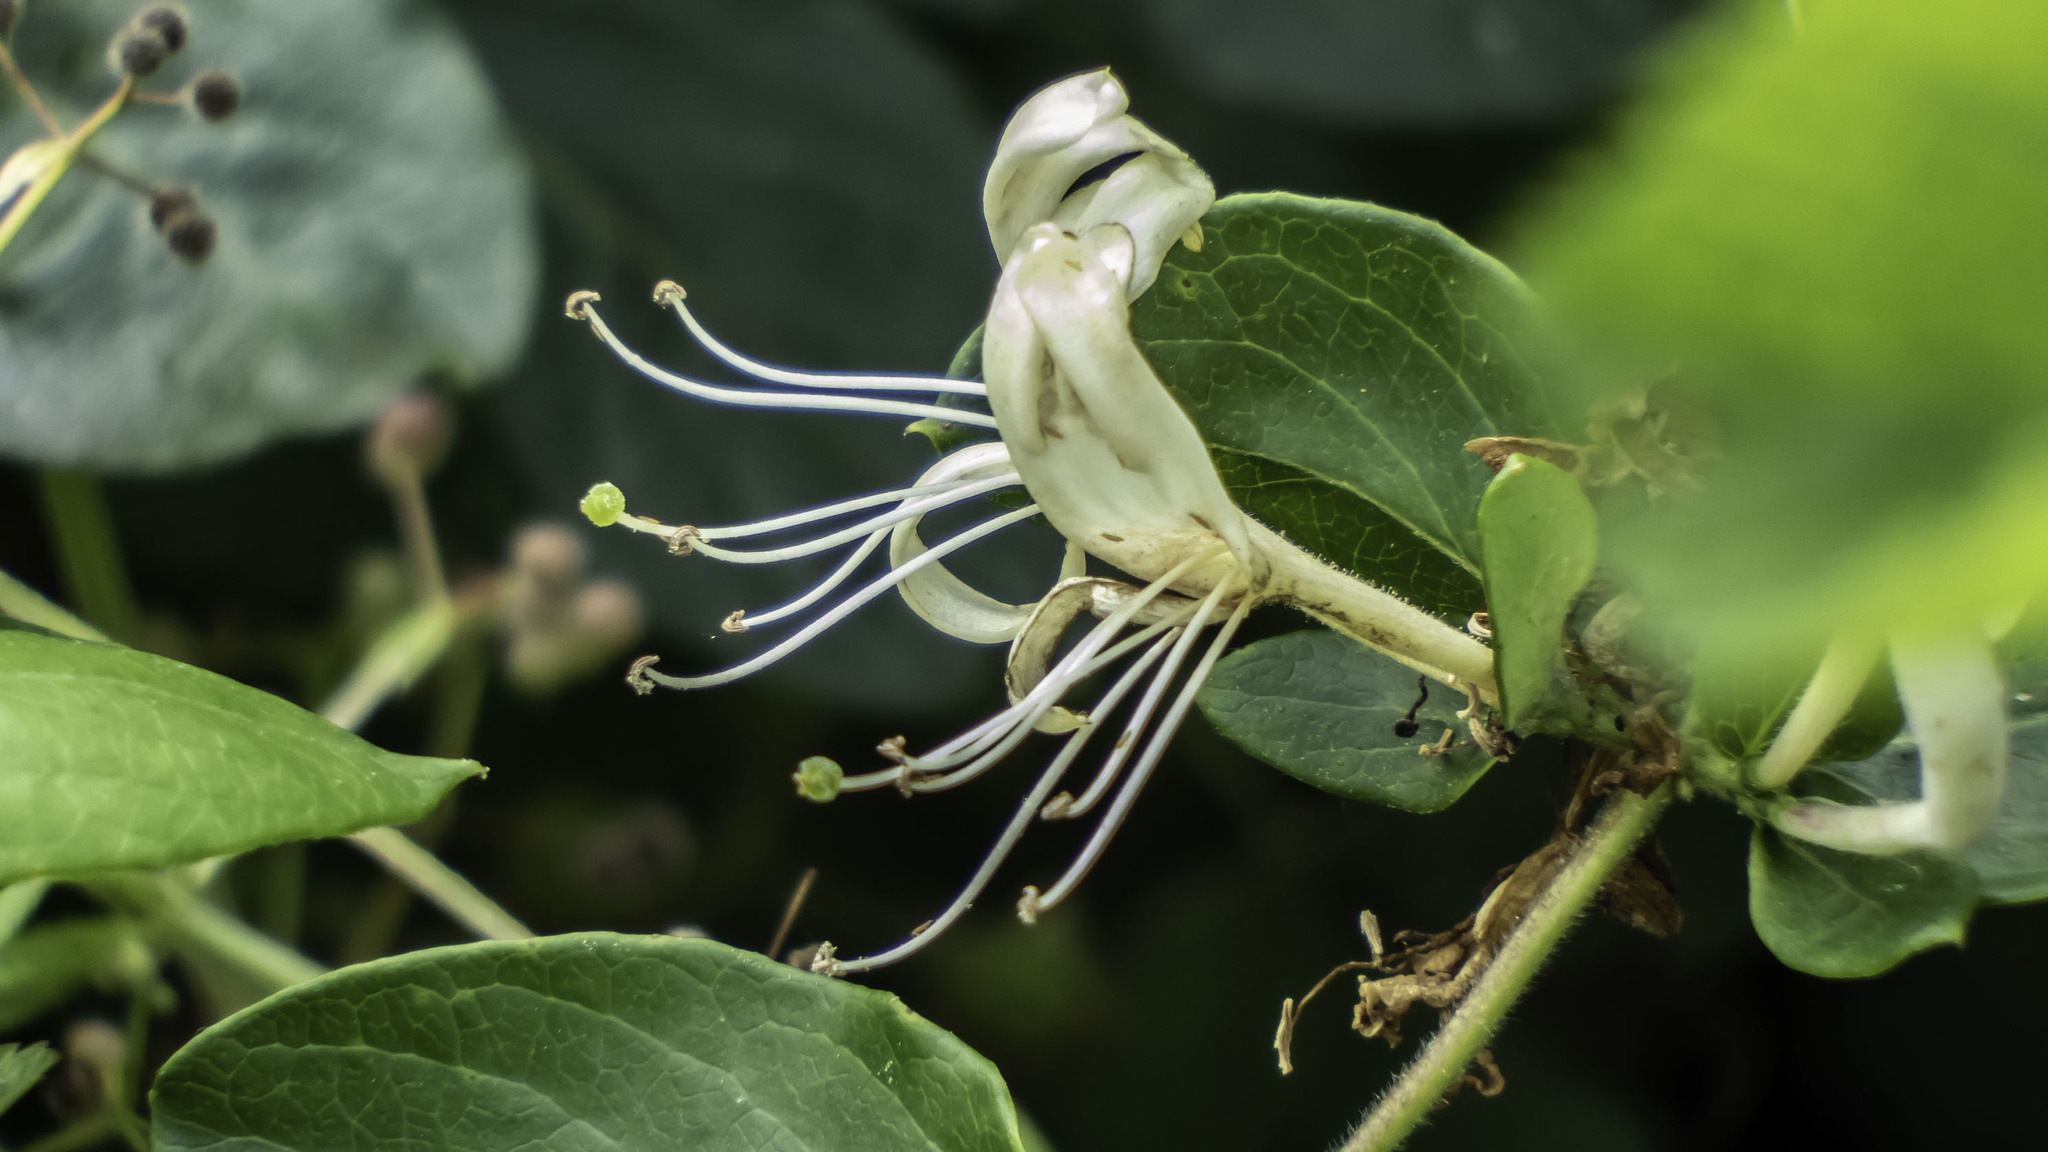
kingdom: Plantae
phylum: Tracheophyta
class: Magnoliopsida
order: Dipsacales
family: Caprifoliaceae
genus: Lonicera
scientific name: Lonicera japonica
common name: Japanese honeysuckle
